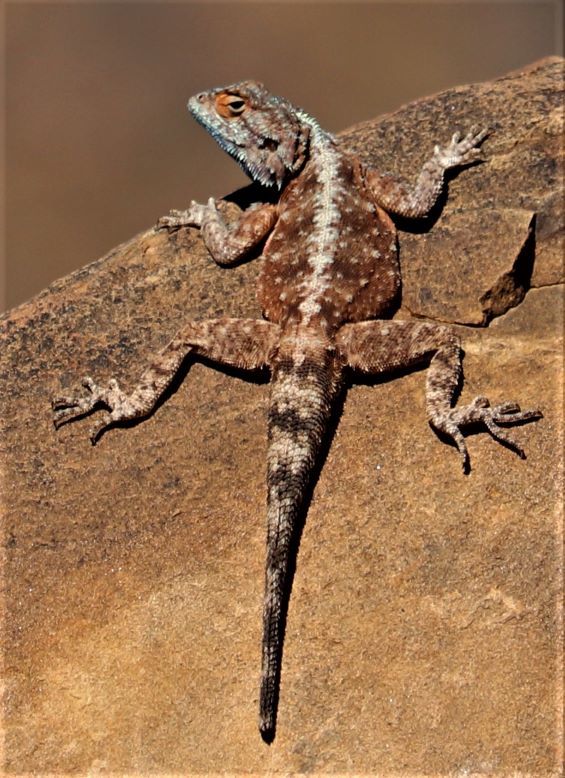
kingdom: Animalia
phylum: Chordata
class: Squamata
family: Agamidae
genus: Agama
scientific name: Agama atra
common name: Southern african rock agama
